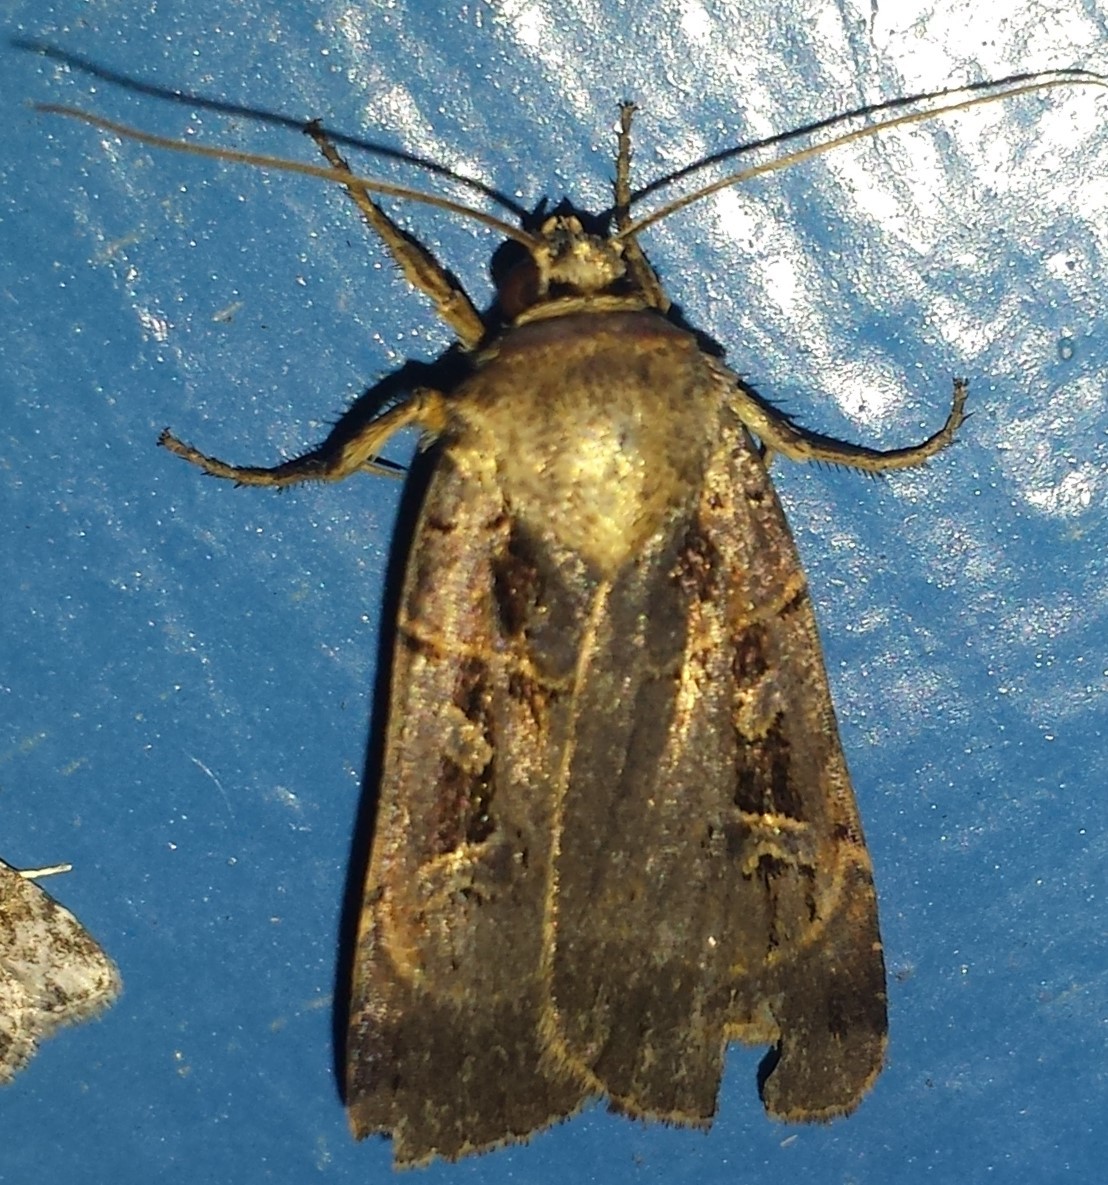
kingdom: Animalia
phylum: Arthropoda
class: Insecta
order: Lepidoptera
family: Noctuidae
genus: Pseudohermonassa
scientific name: Pseudohermonassa bicarnea
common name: Pink spotted dart
